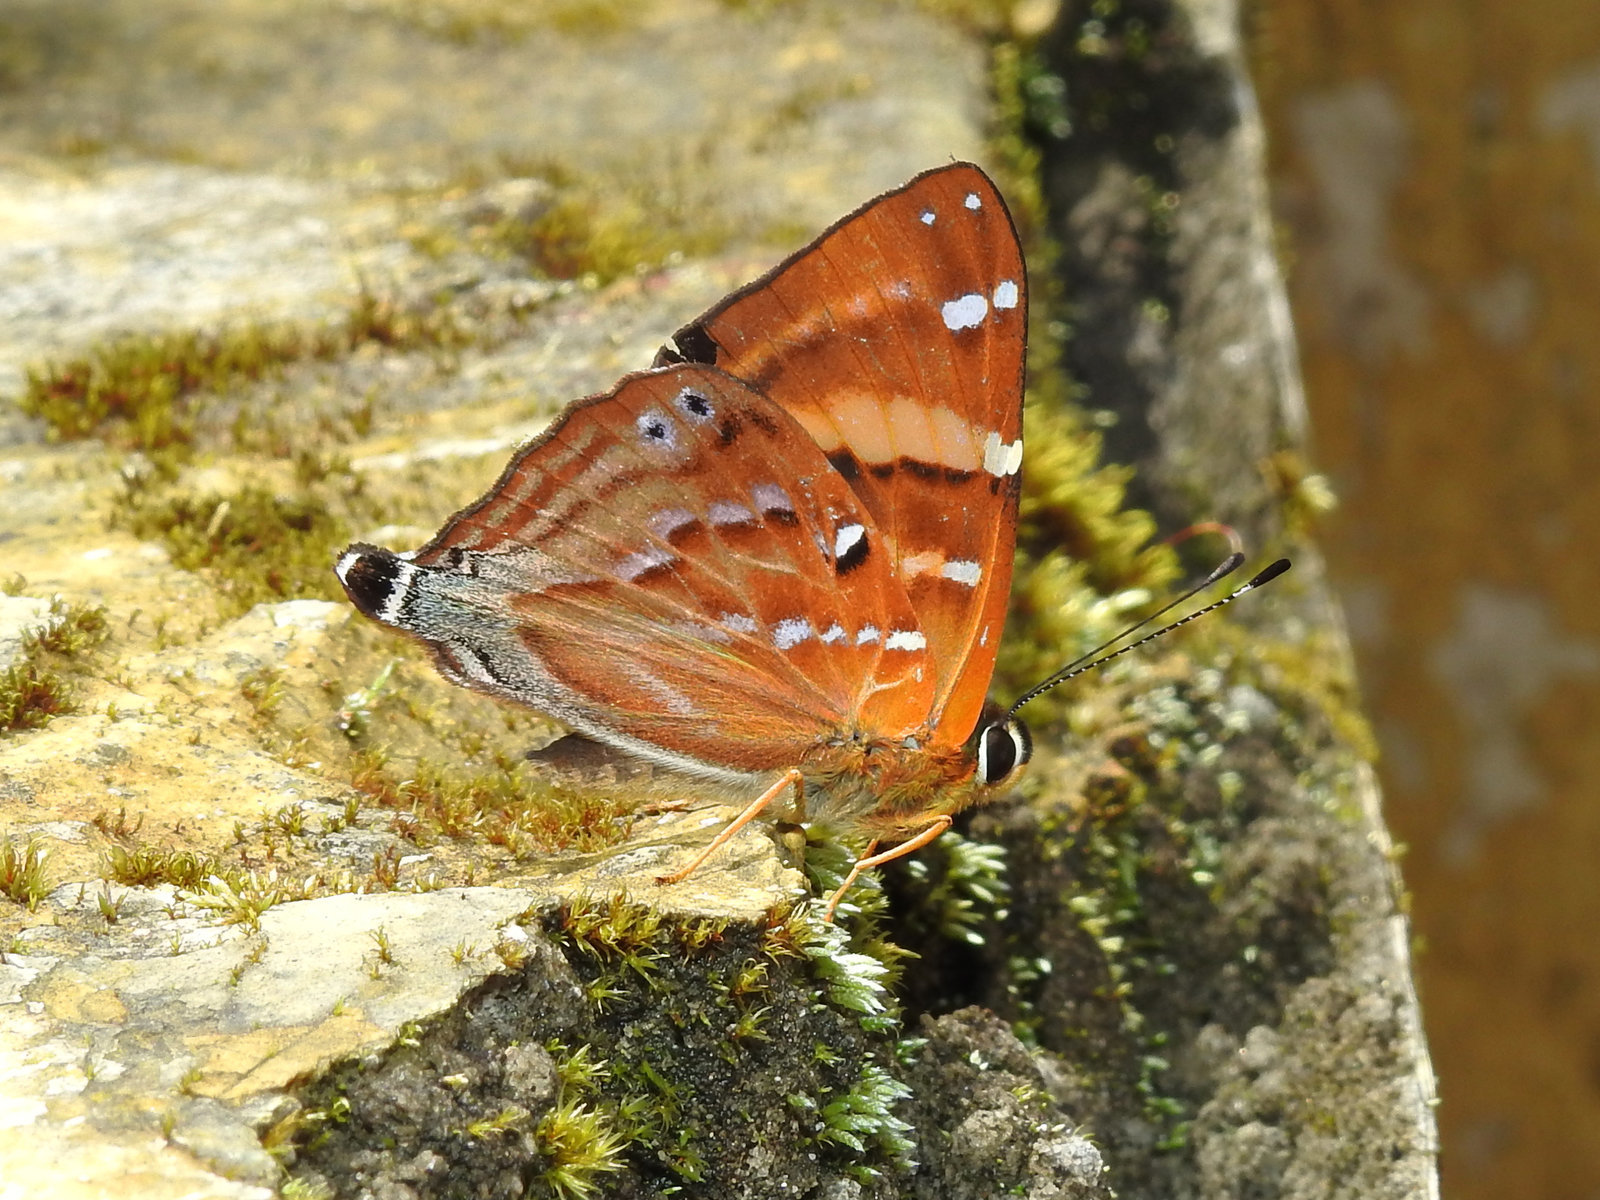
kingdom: Animalia
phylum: Arthropoda
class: Insecta
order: Lepidoptera
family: Lycaenidae
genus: Dodona
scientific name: Dodona ouida
